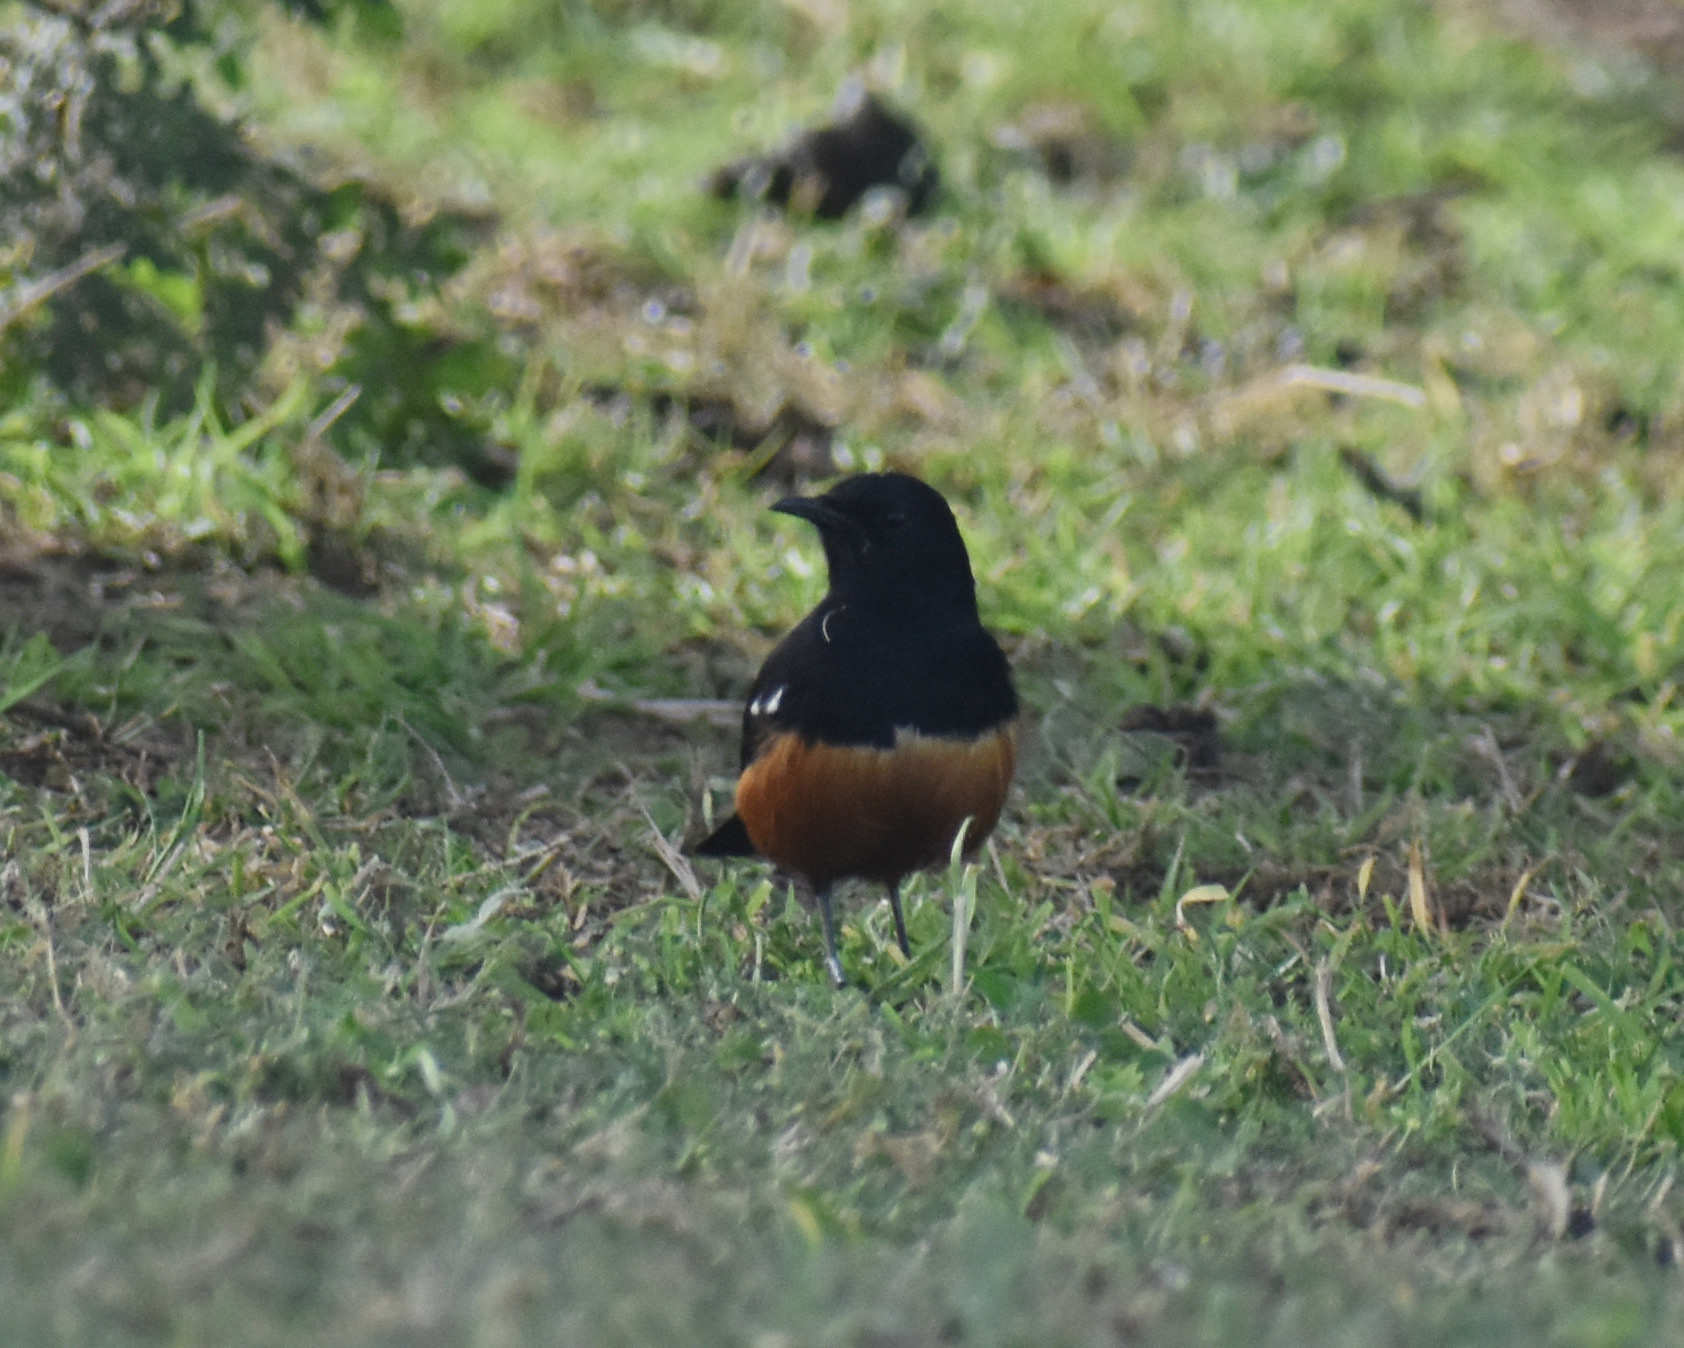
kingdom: Animalia
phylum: Chordata
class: Aves
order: Passeriformes
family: Muscicapidae
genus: Thamnolaea
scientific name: Thamnolaea cinnamomeiventris
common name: Mocking cliff chat
